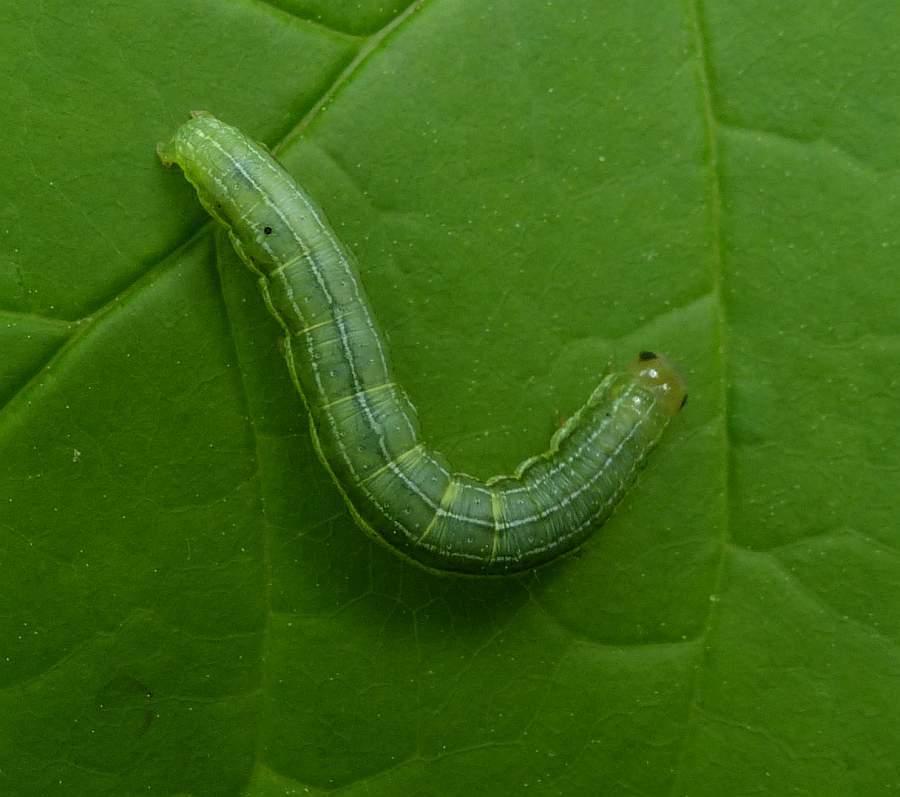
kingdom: Animalia
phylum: Arthropoda
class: Insecta
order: Lepidoptera
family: Noctuidae
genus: Loscopia
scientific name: Loscopia velata
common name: Veiled ear moth
